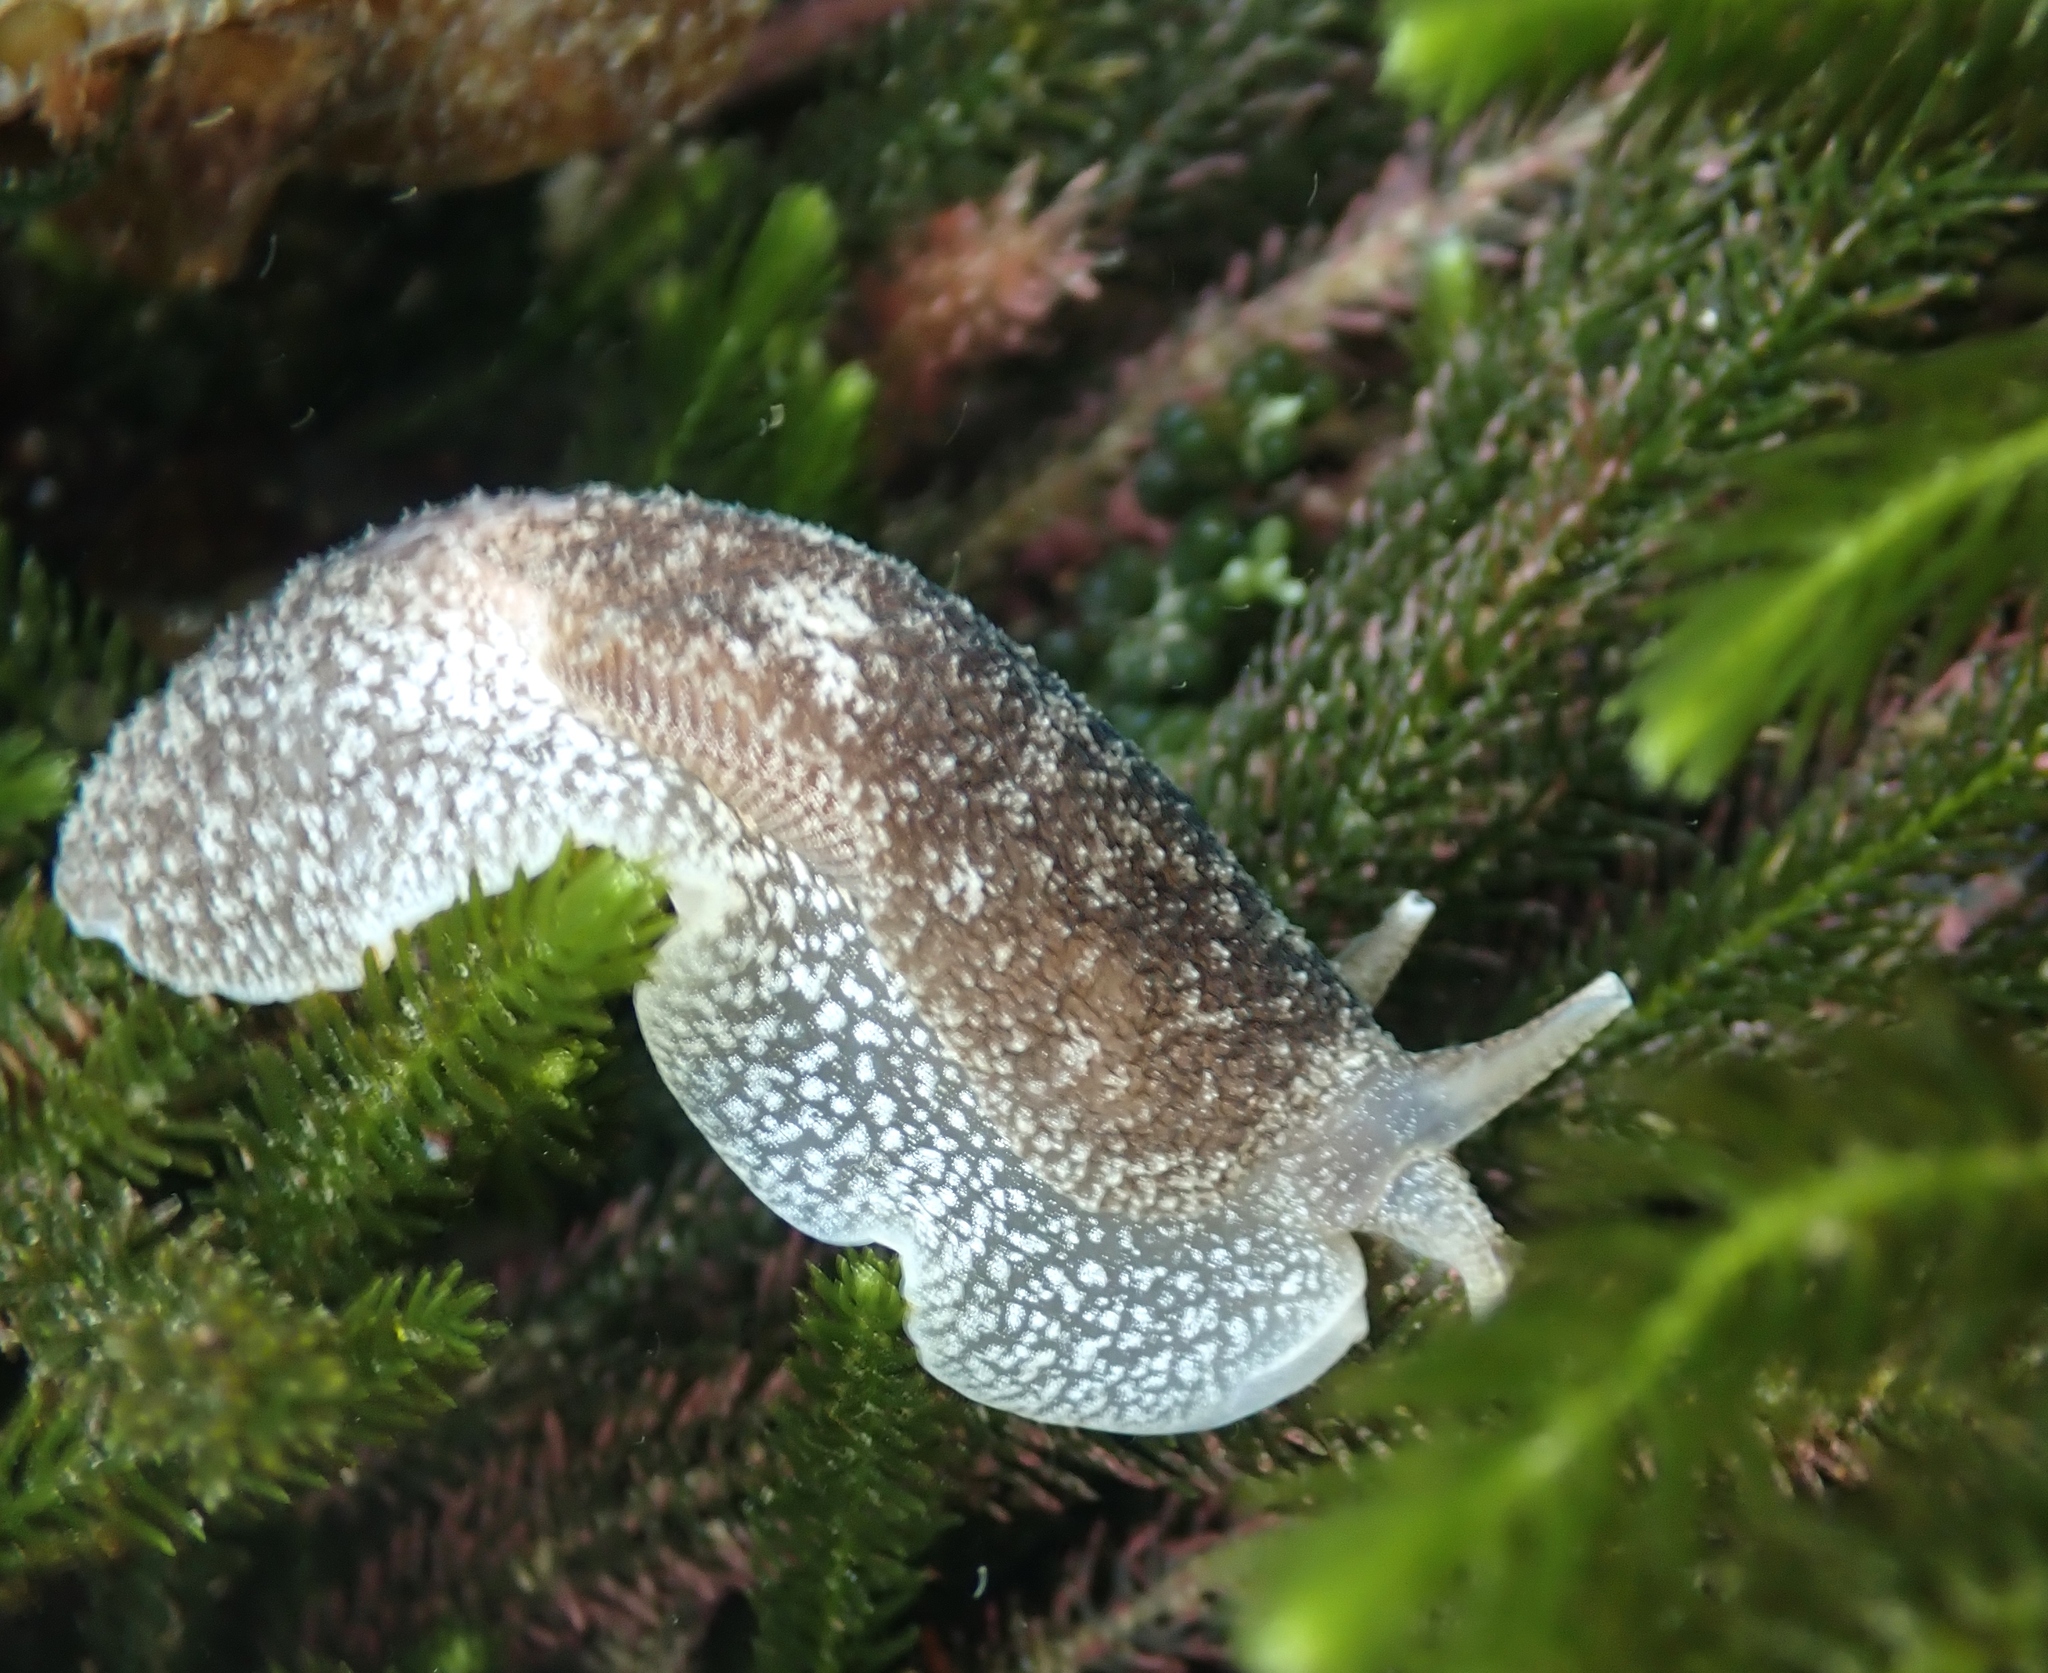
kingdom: Animalia
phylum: Mollusca
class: Gastropoda
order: Pleurobranchida
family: Pleurobranchaeidae
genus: Pleurobranchaea
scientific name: Pleurobranchaea maculata
